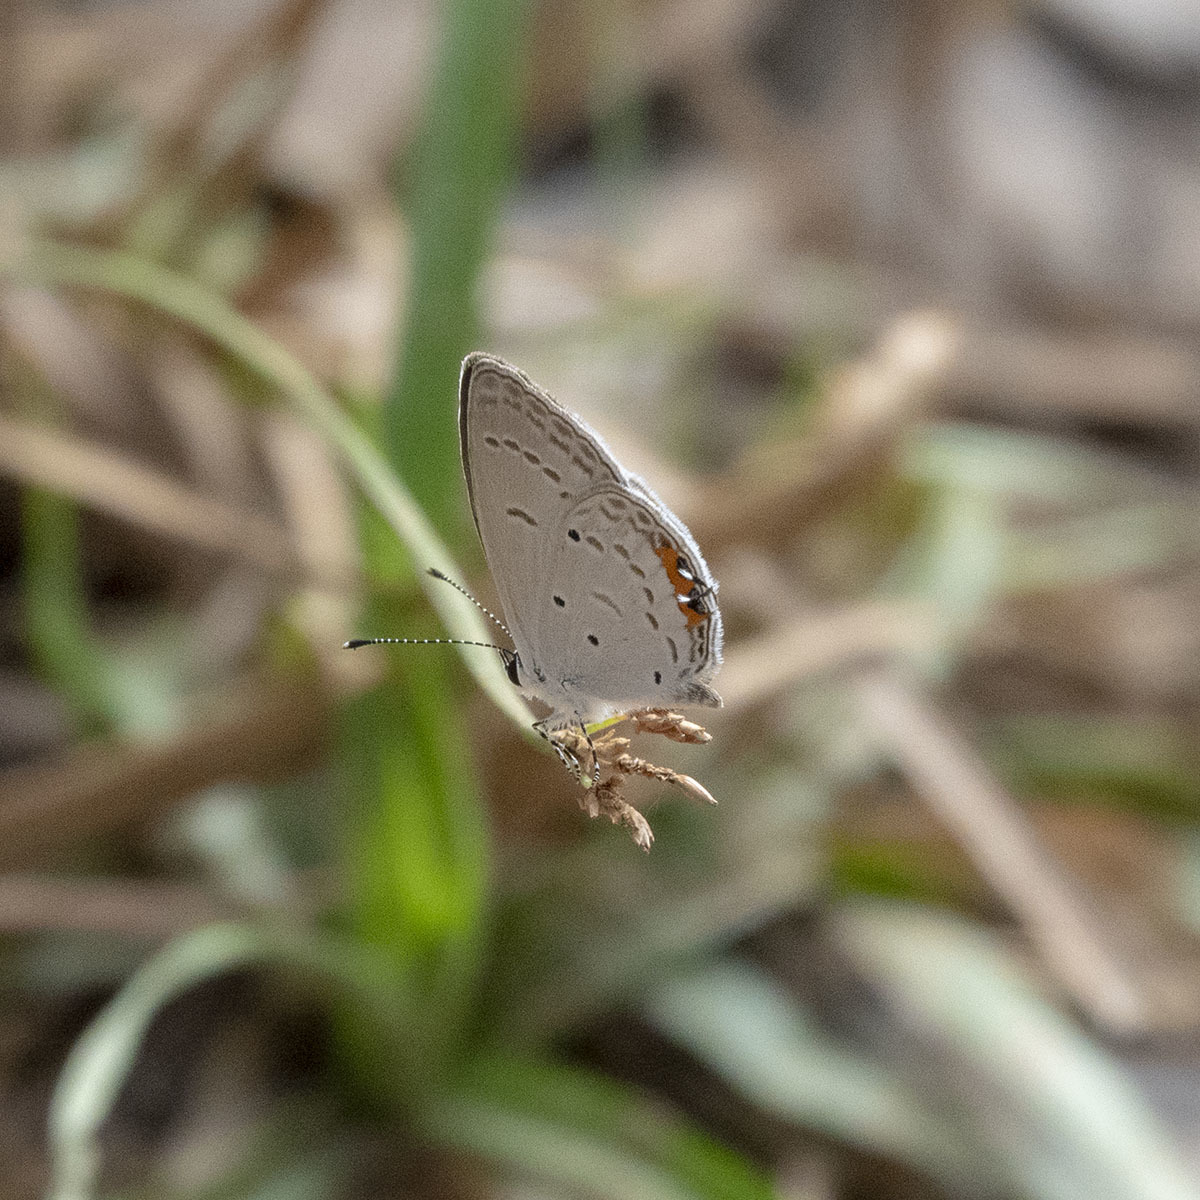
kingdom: Animalia
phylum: Arthropoda
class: Insecta
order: Lepidoptera
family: Lycaenidae
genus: Everes
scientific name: Everes lacturnus
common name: Orange-tipped pea-blue
